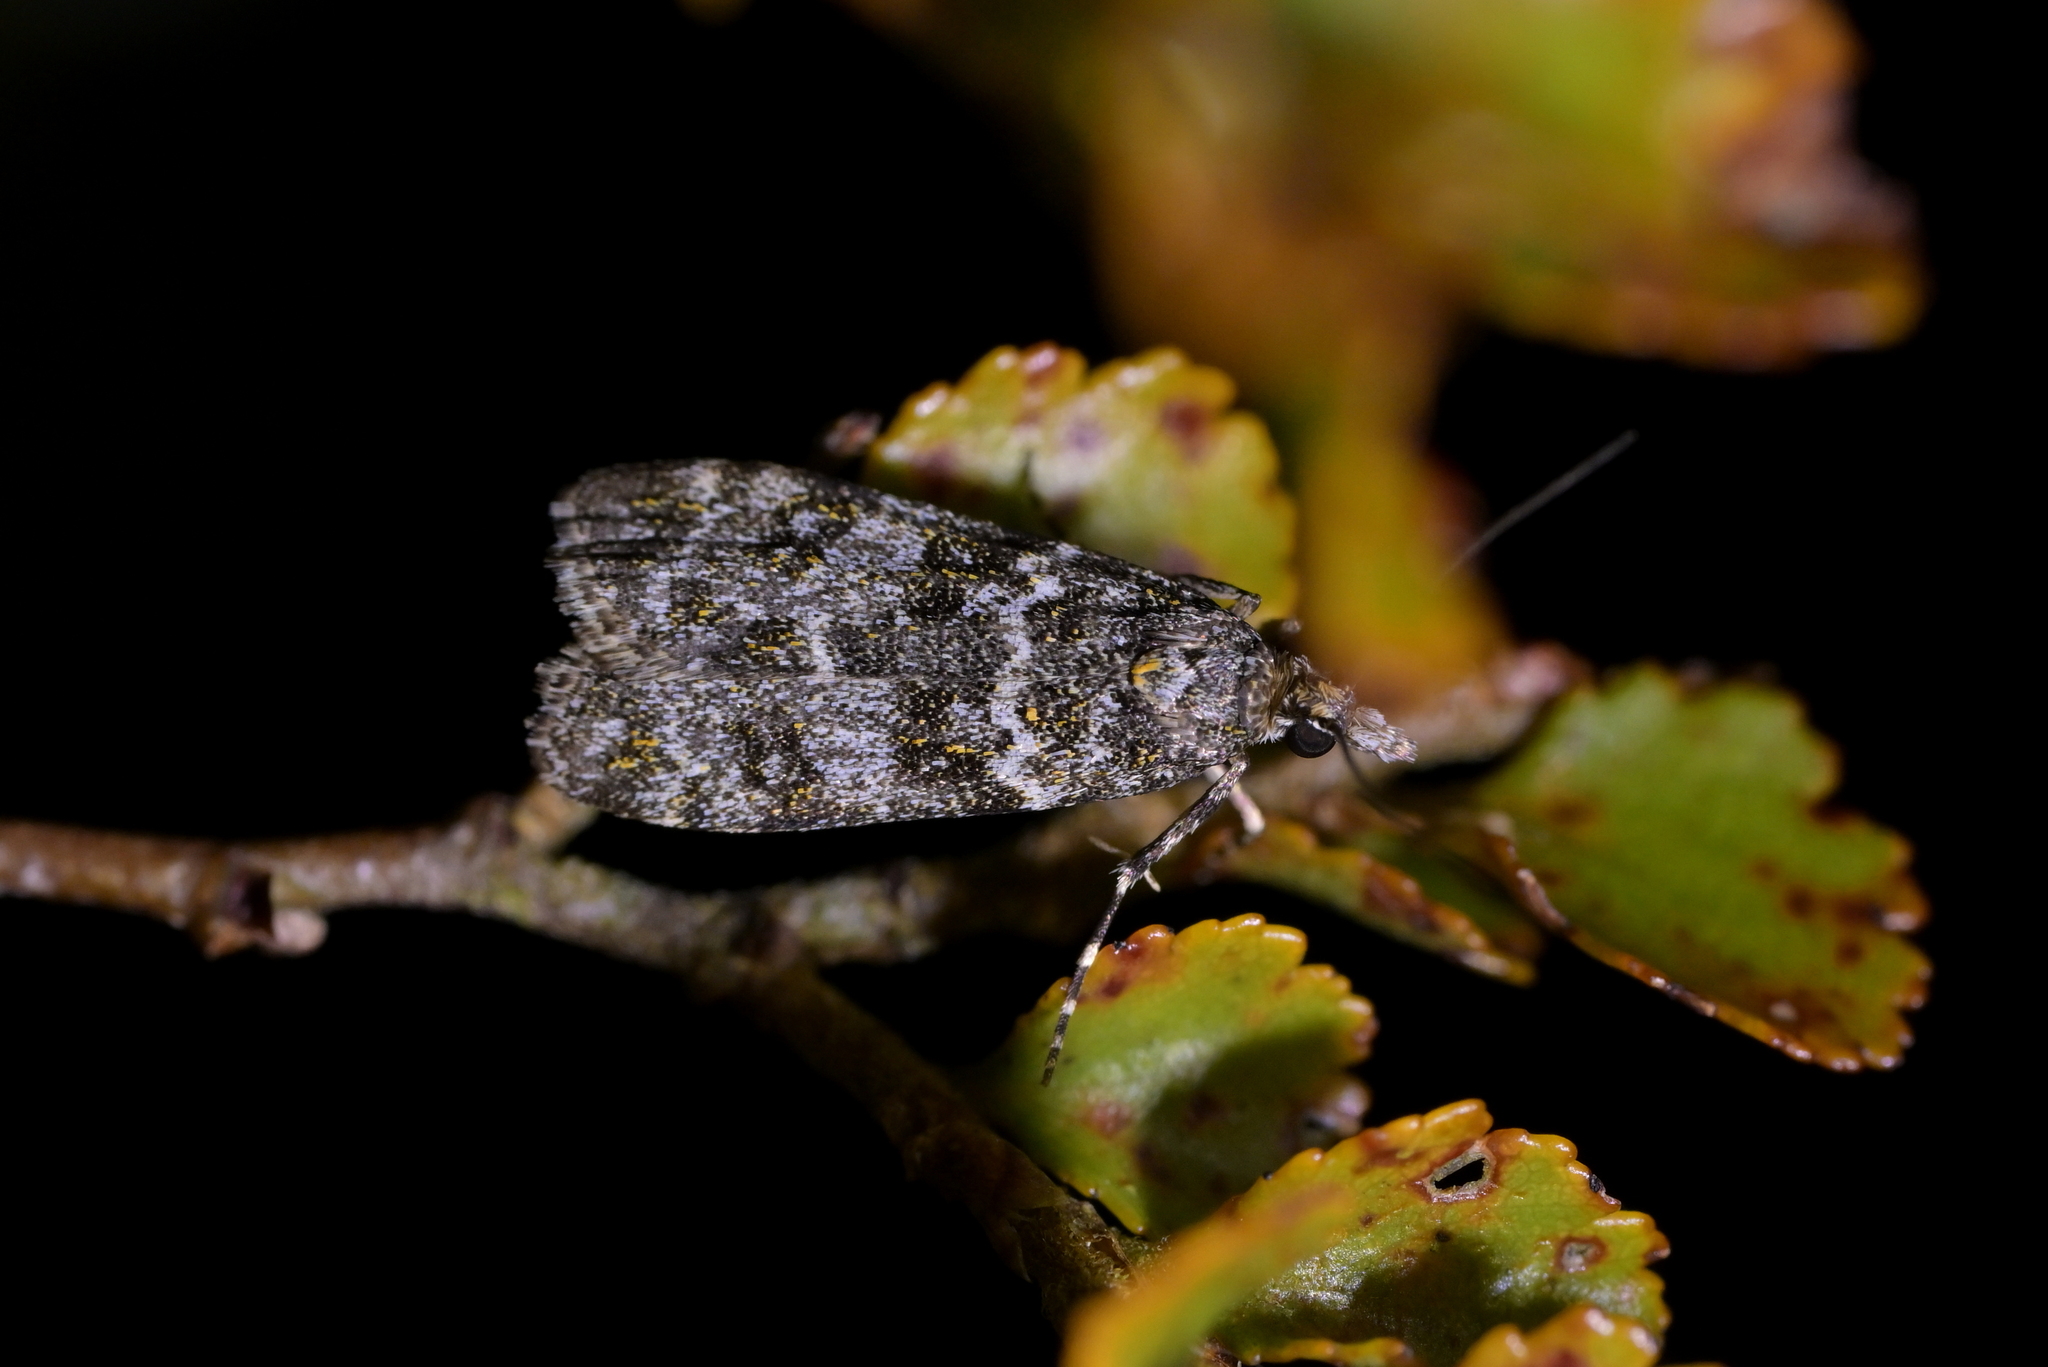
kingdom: Animalia
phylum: Arthropoda
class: Insecta
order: Lepidoptera
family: Crambidae
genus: Eudonia
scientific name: Eudonia
